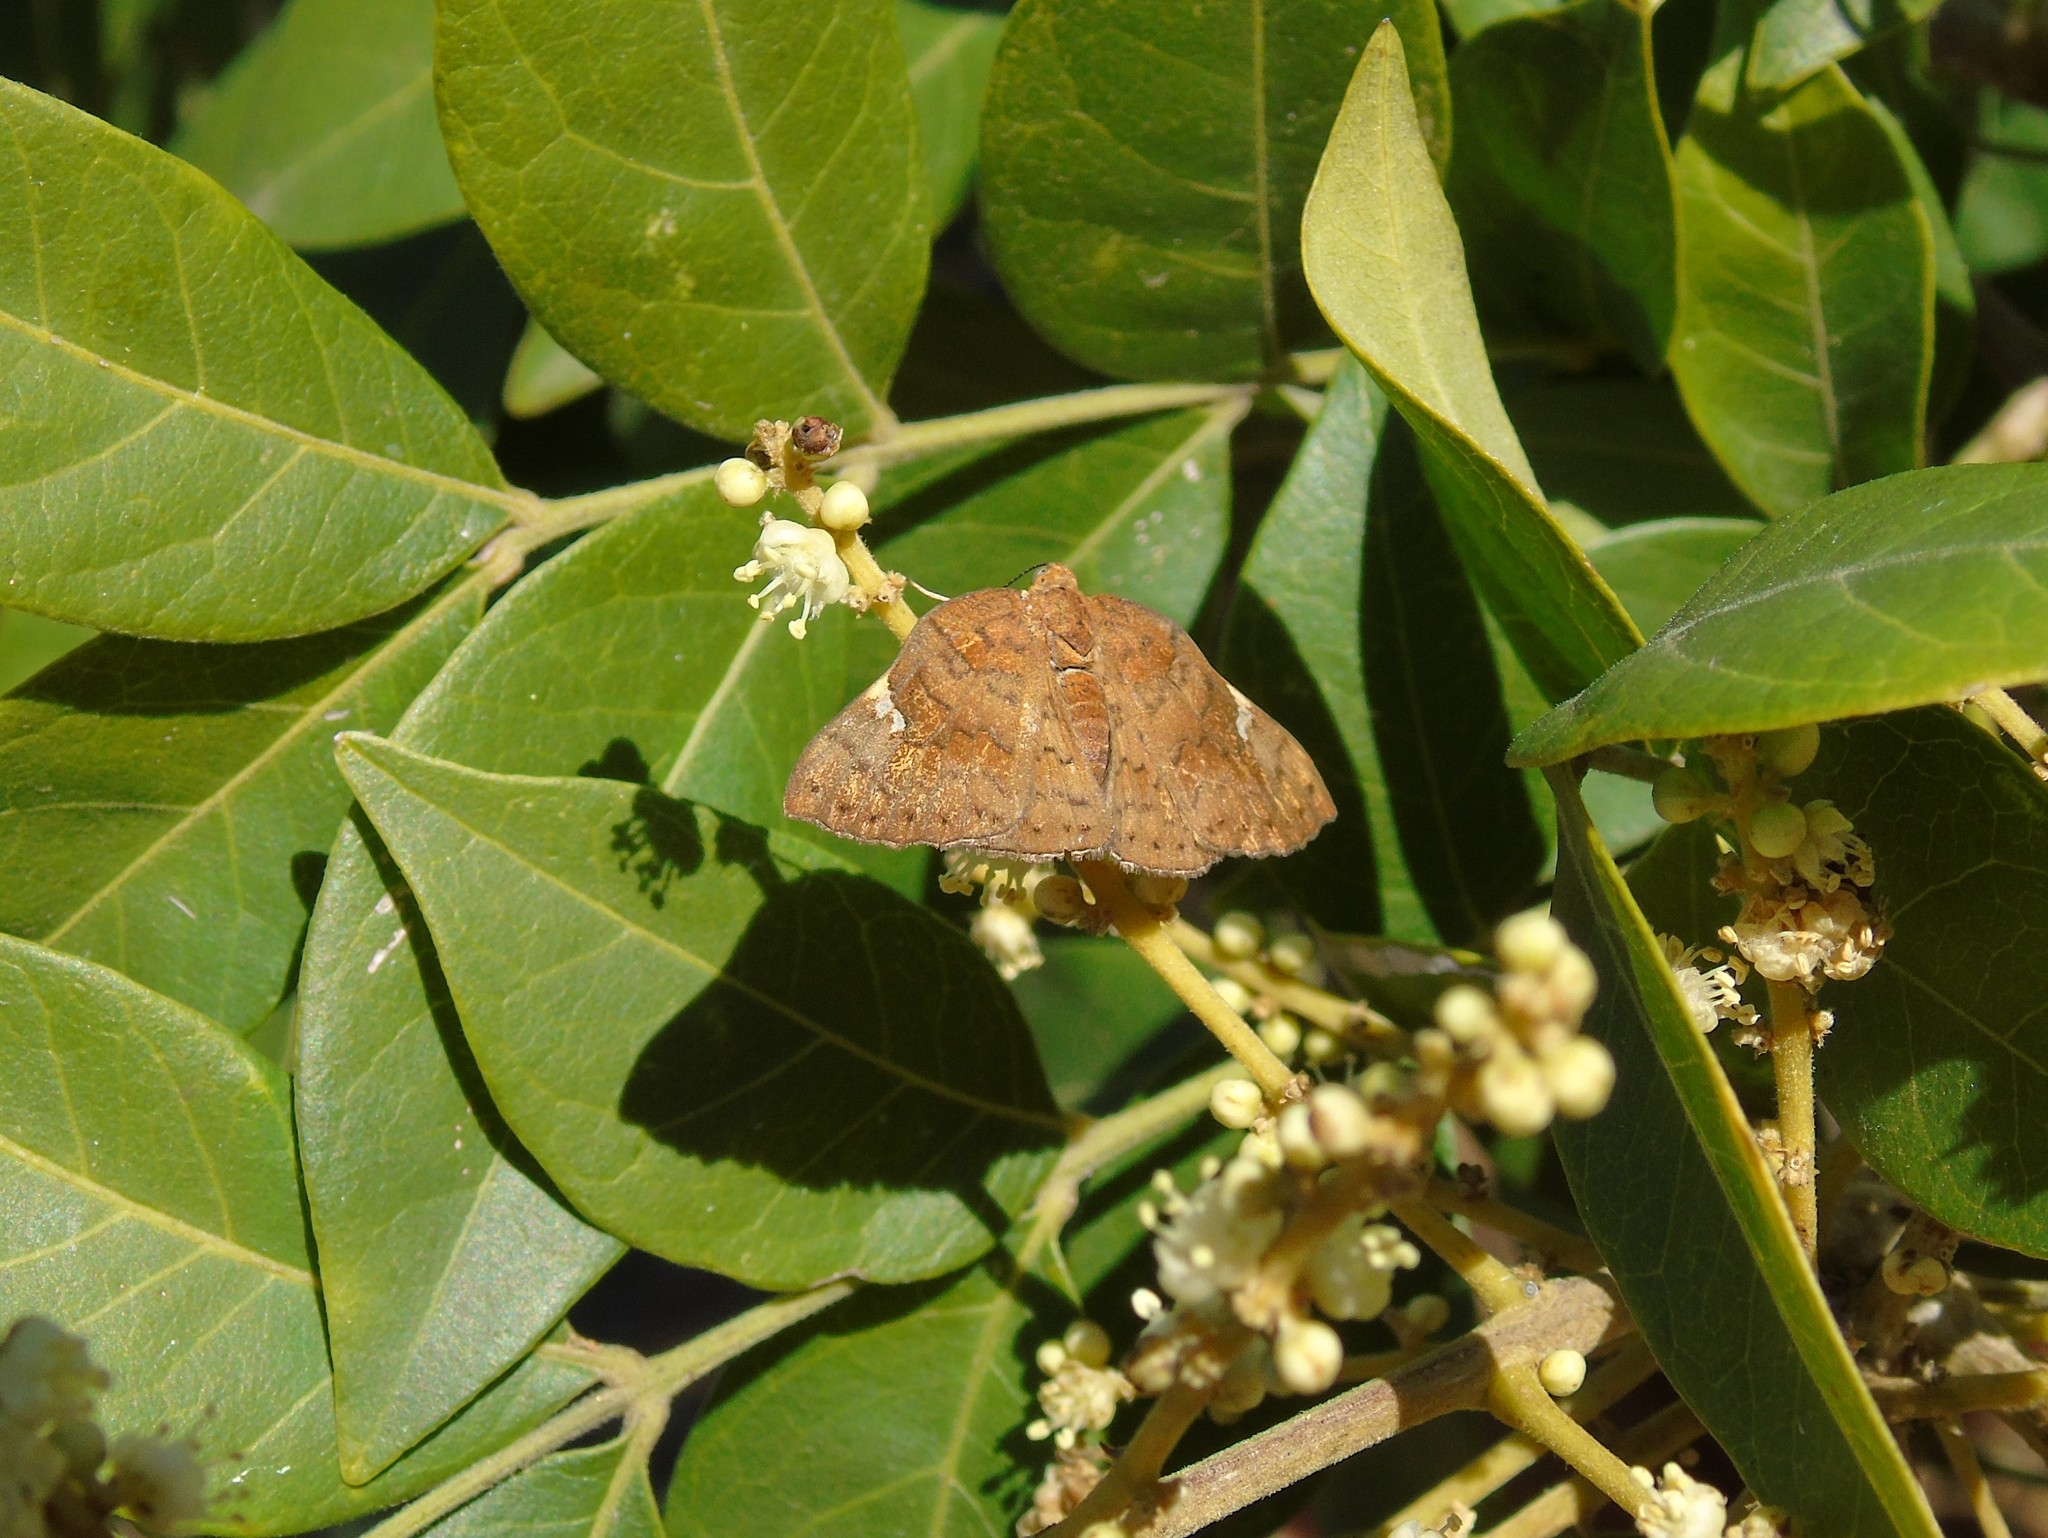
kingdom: Animalia
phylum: Arthropoda
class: Insecta
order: Lepidoptera
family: Riodinidae
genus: Curvie
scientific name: Curvie emesia
